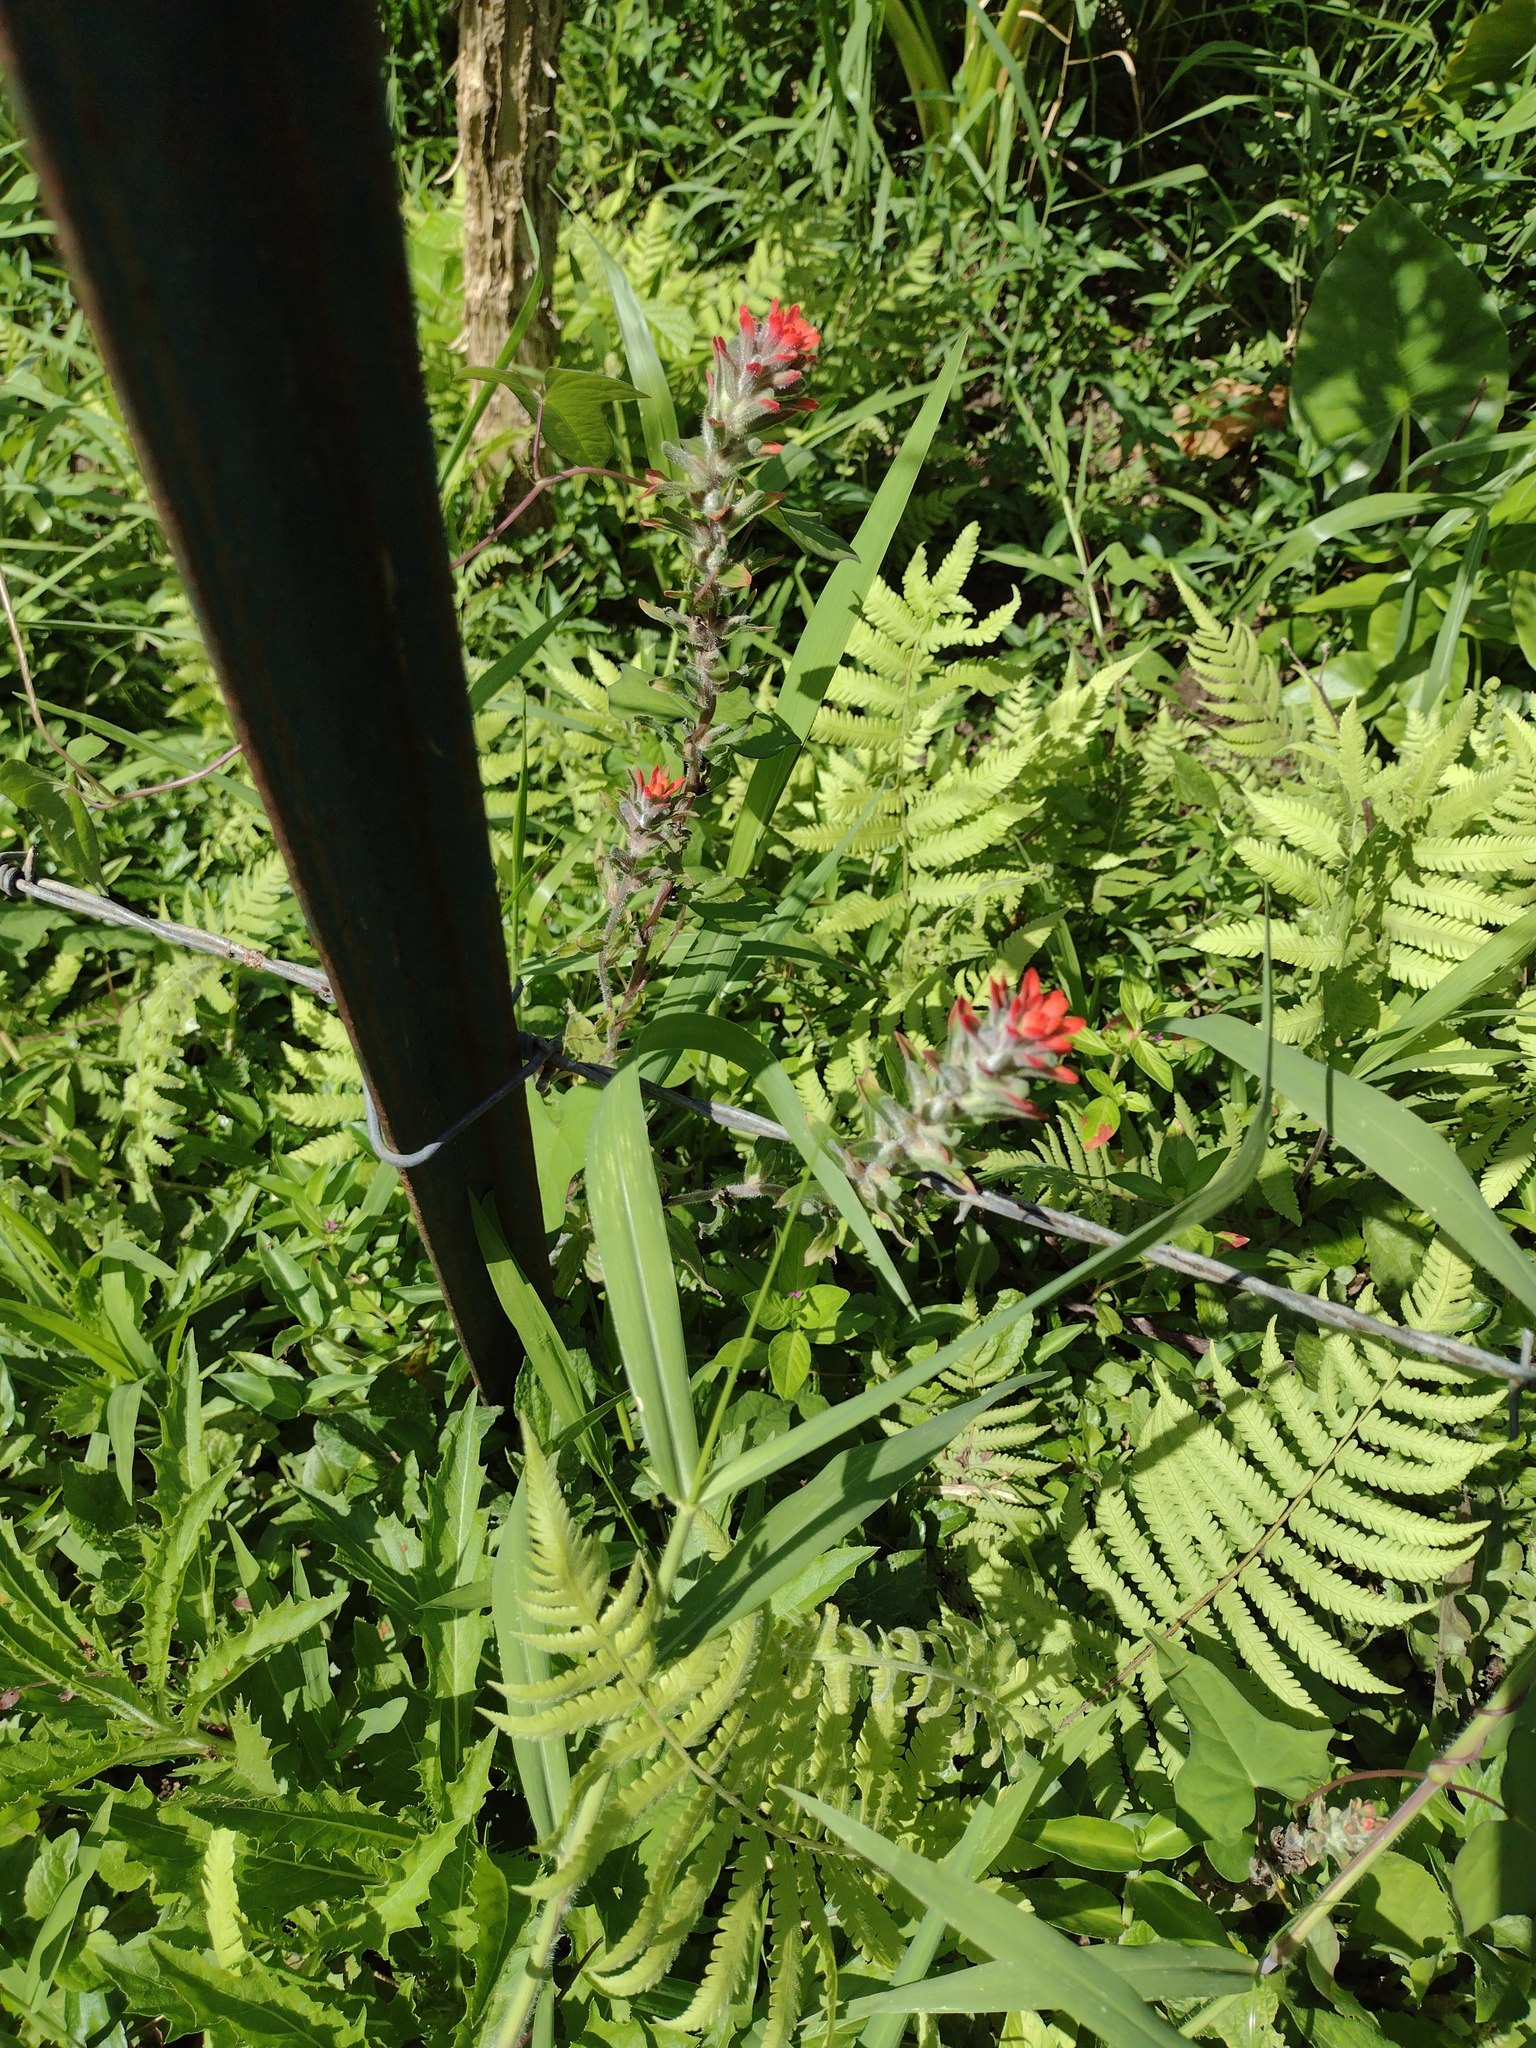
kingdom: Plantae
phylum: Tracheophyta
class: Magnoliopsida
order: Lamiales
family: Orobanchaceae
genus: Castilleja
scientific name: Castilleja arvensis
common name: Indian paintbrush
